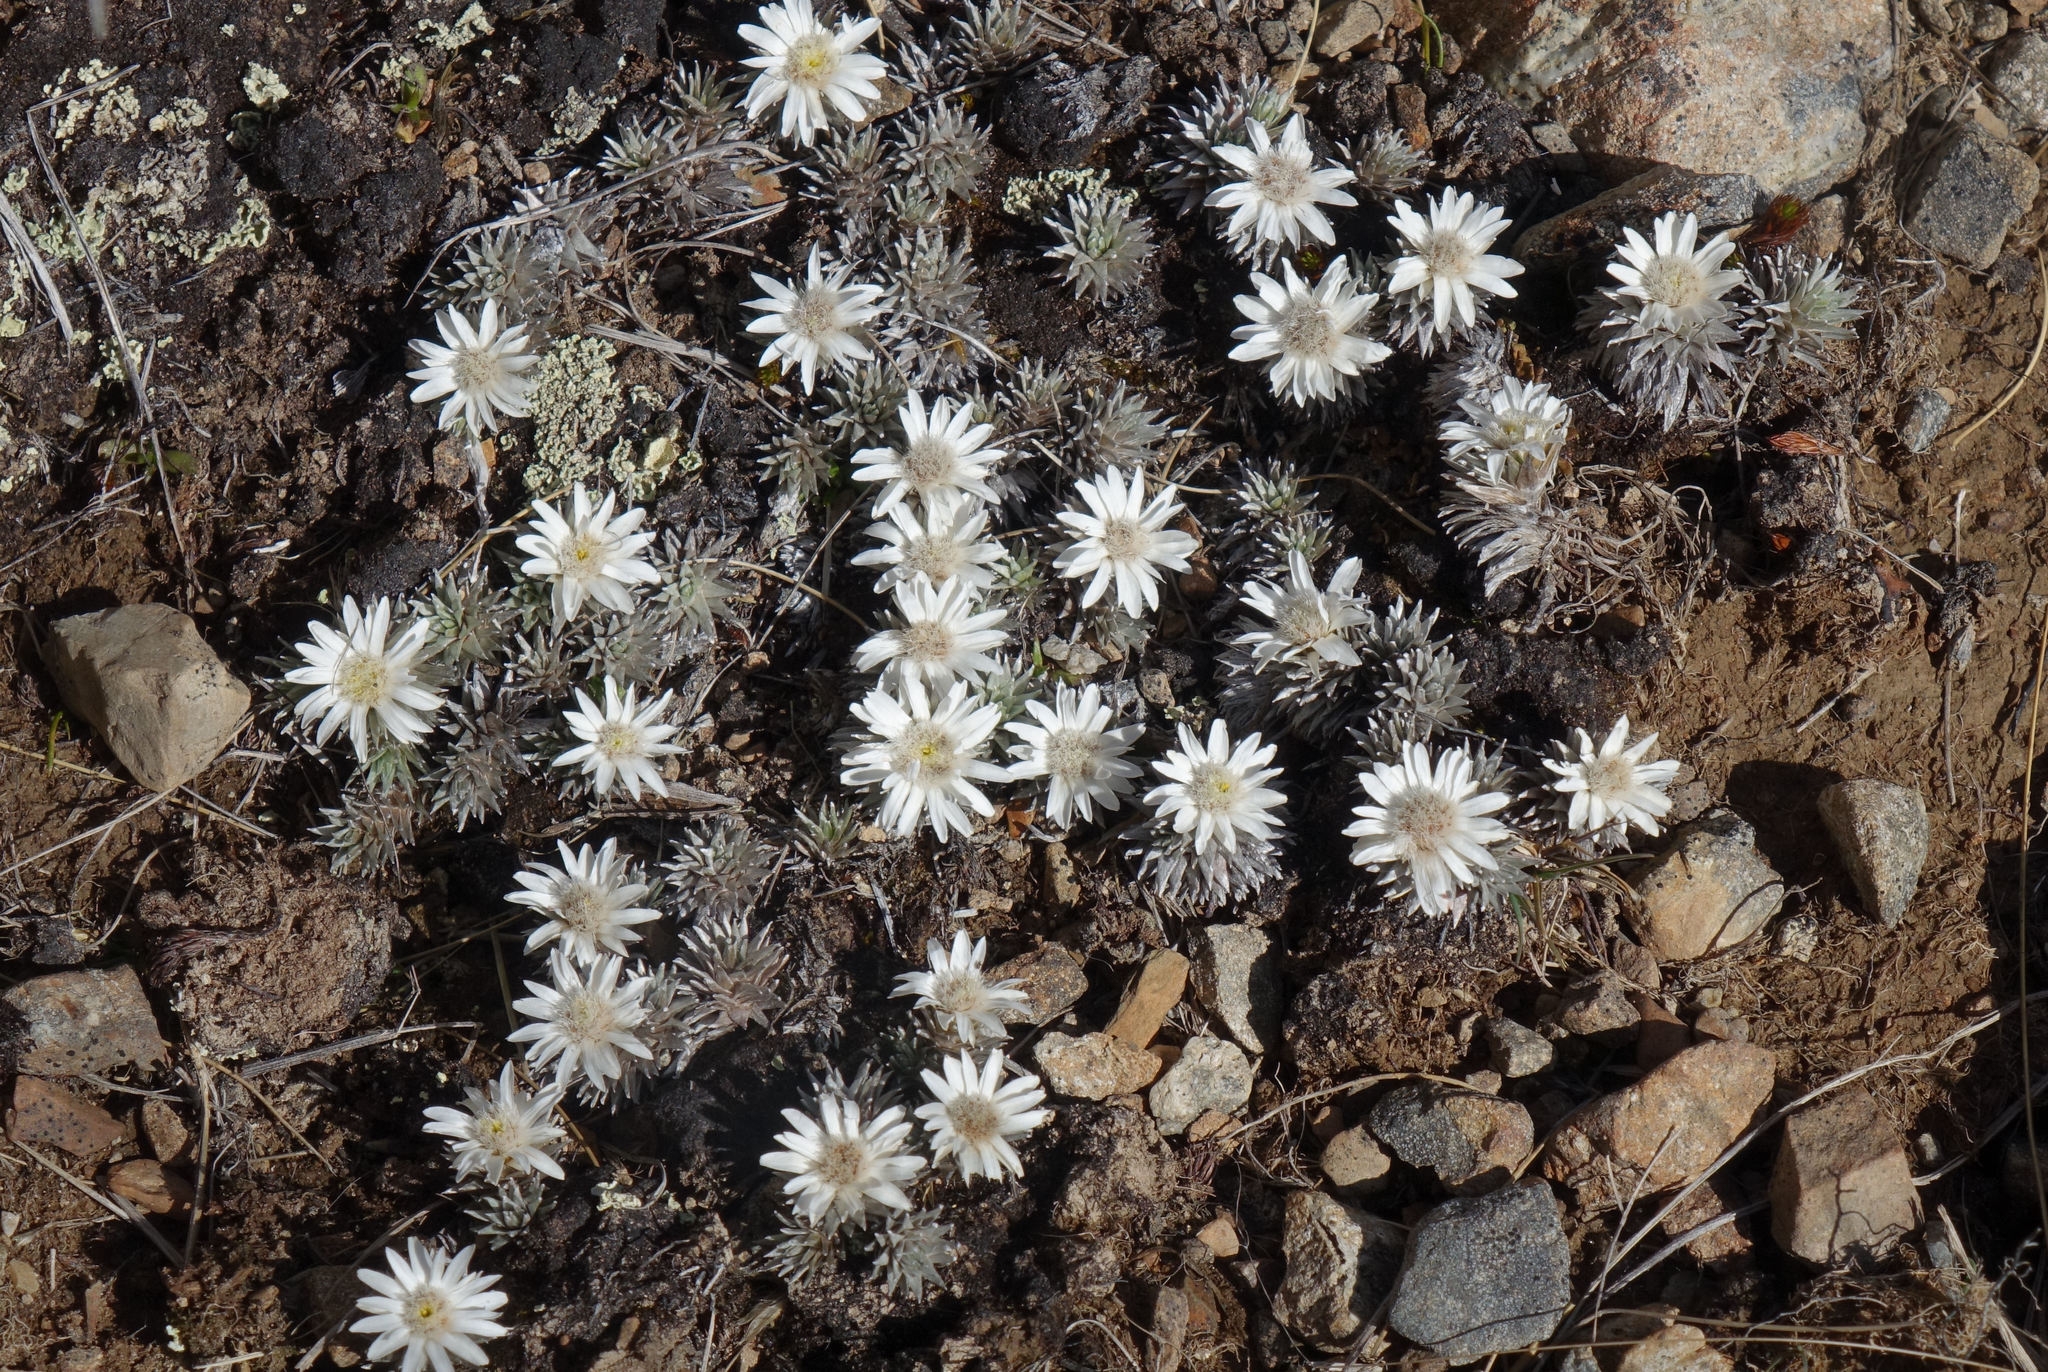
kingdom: Plantae
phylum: Tracheophyta
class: Magnoliopsida
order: Asterales
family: Asteraceae
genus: Raoulia
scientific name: Raoulia grandiflora
